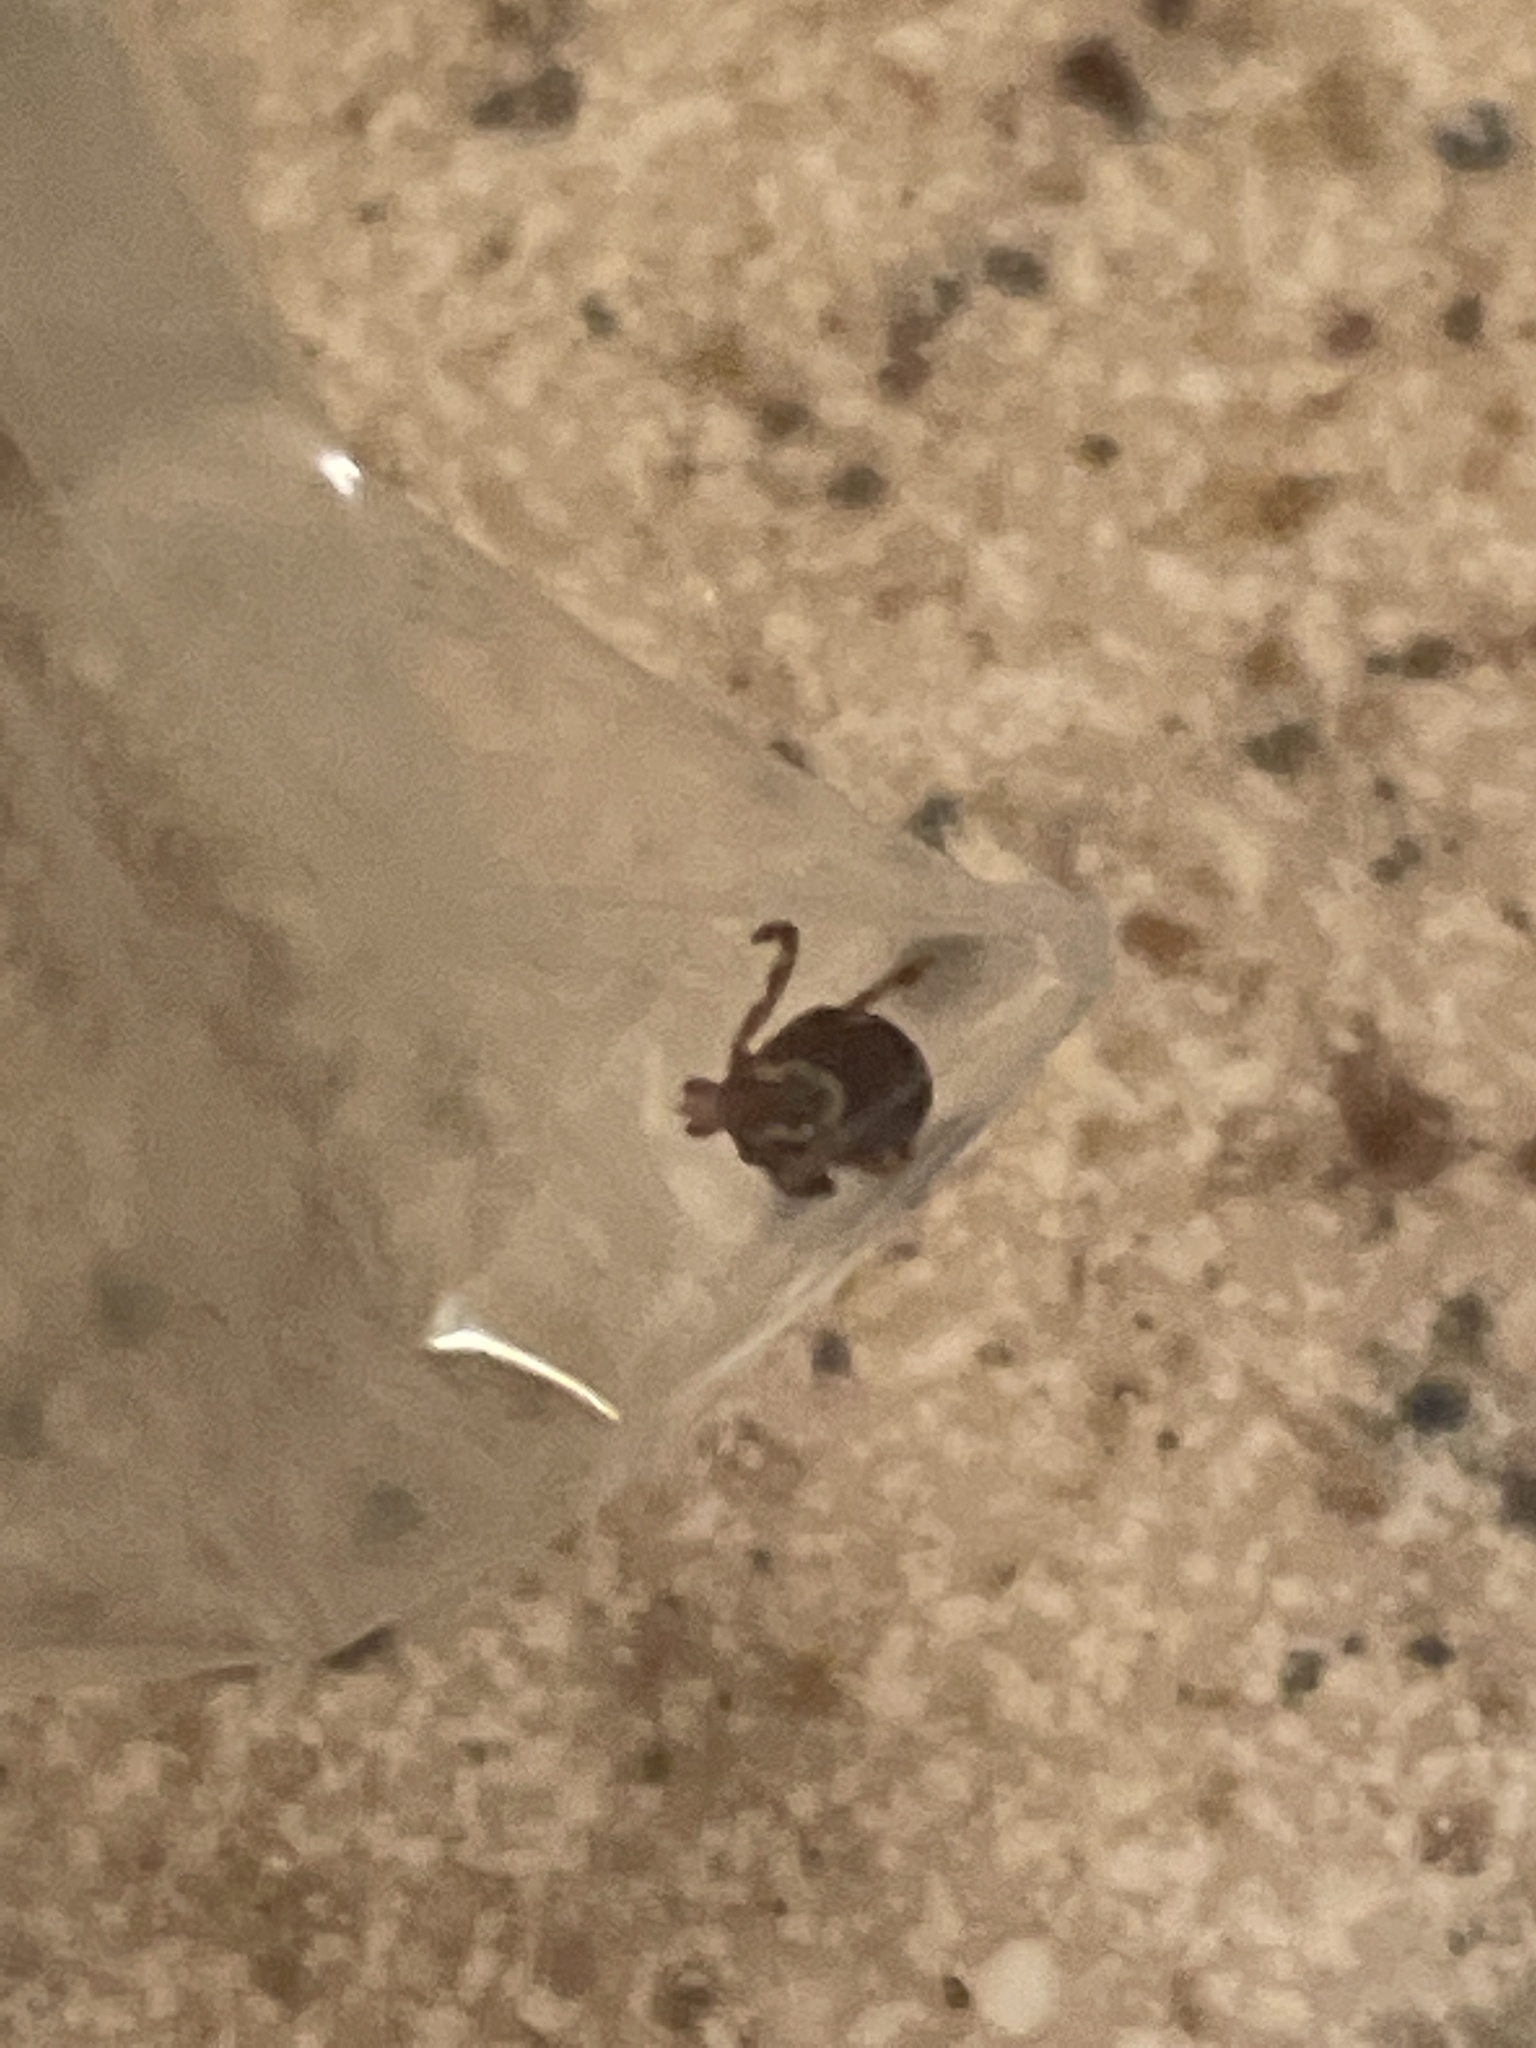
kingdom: Animalia
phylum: Arthropoda
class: Arachnida
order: Ixodida
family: Ixodidae
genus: Dermacentor
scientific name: Dermacentor variabilis
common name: American dog tick
